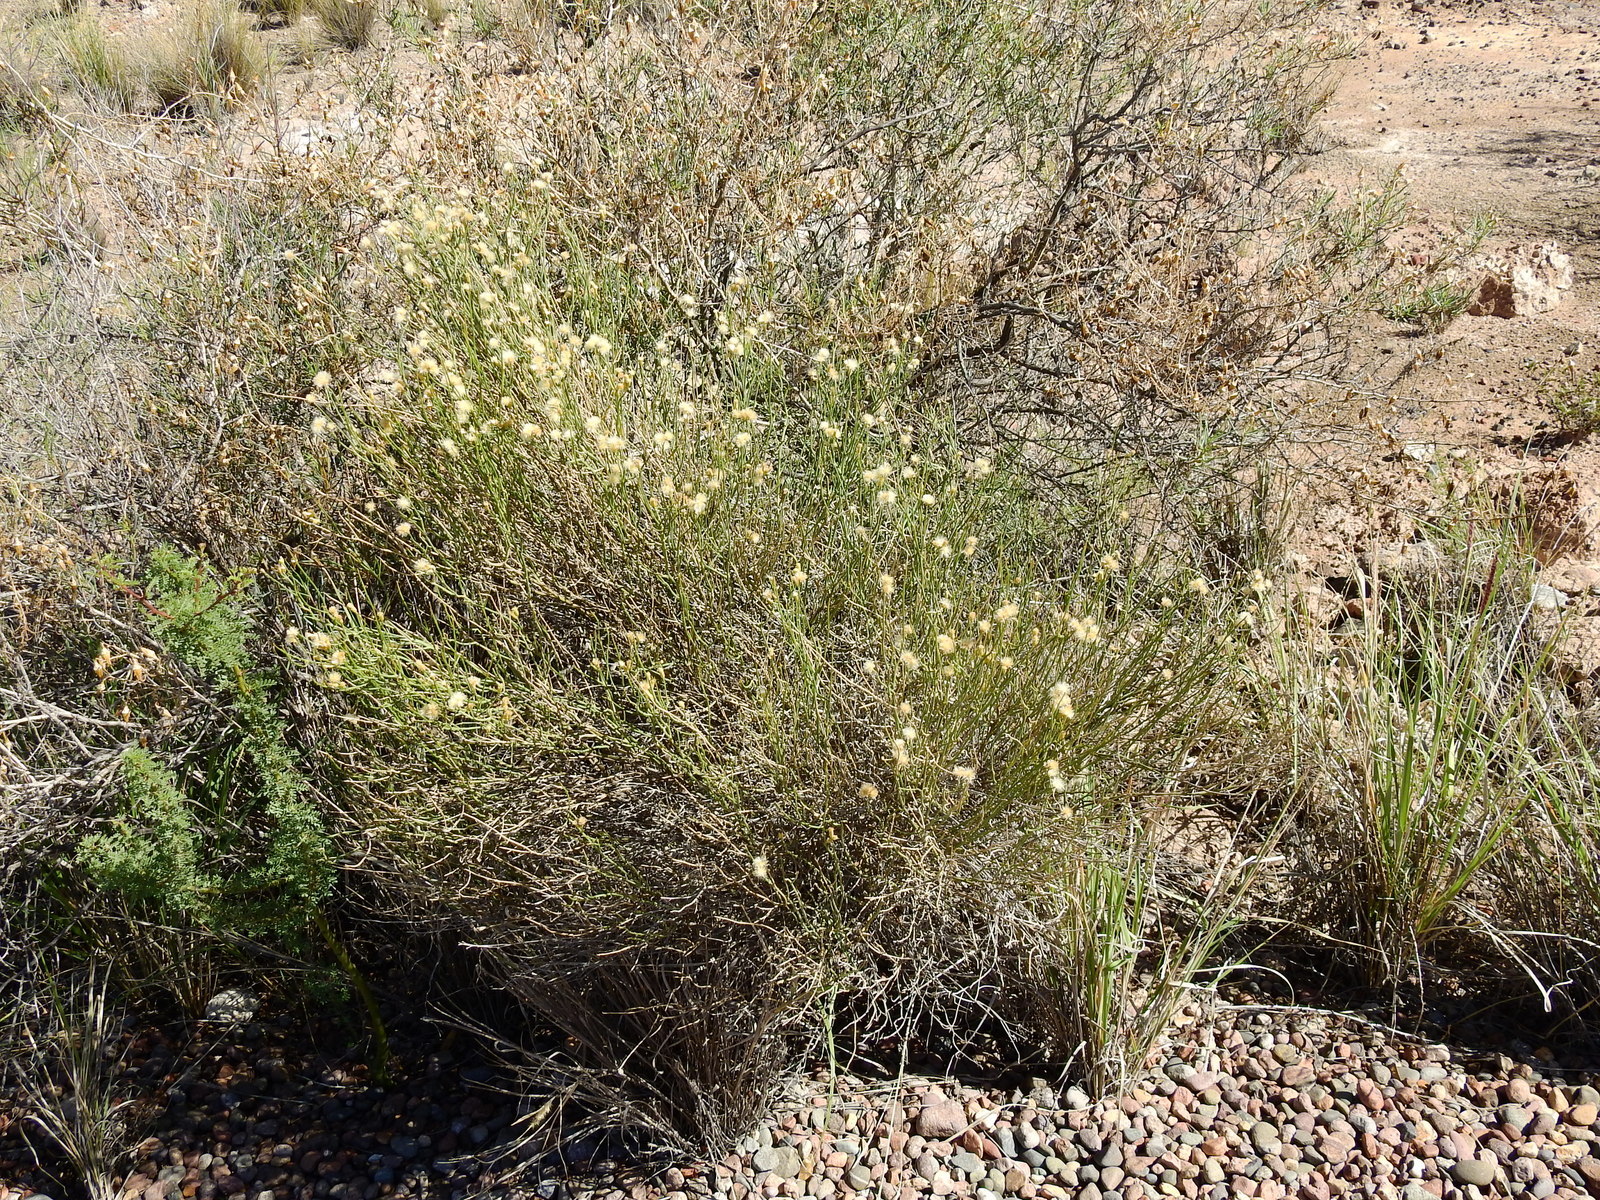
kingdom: Plantae
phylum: Tracheophyta
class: Magnoliopsida
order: Asterales
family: Asteraceae
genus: Pseudobaccharis
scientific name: Pseudobaccharis spartioides
